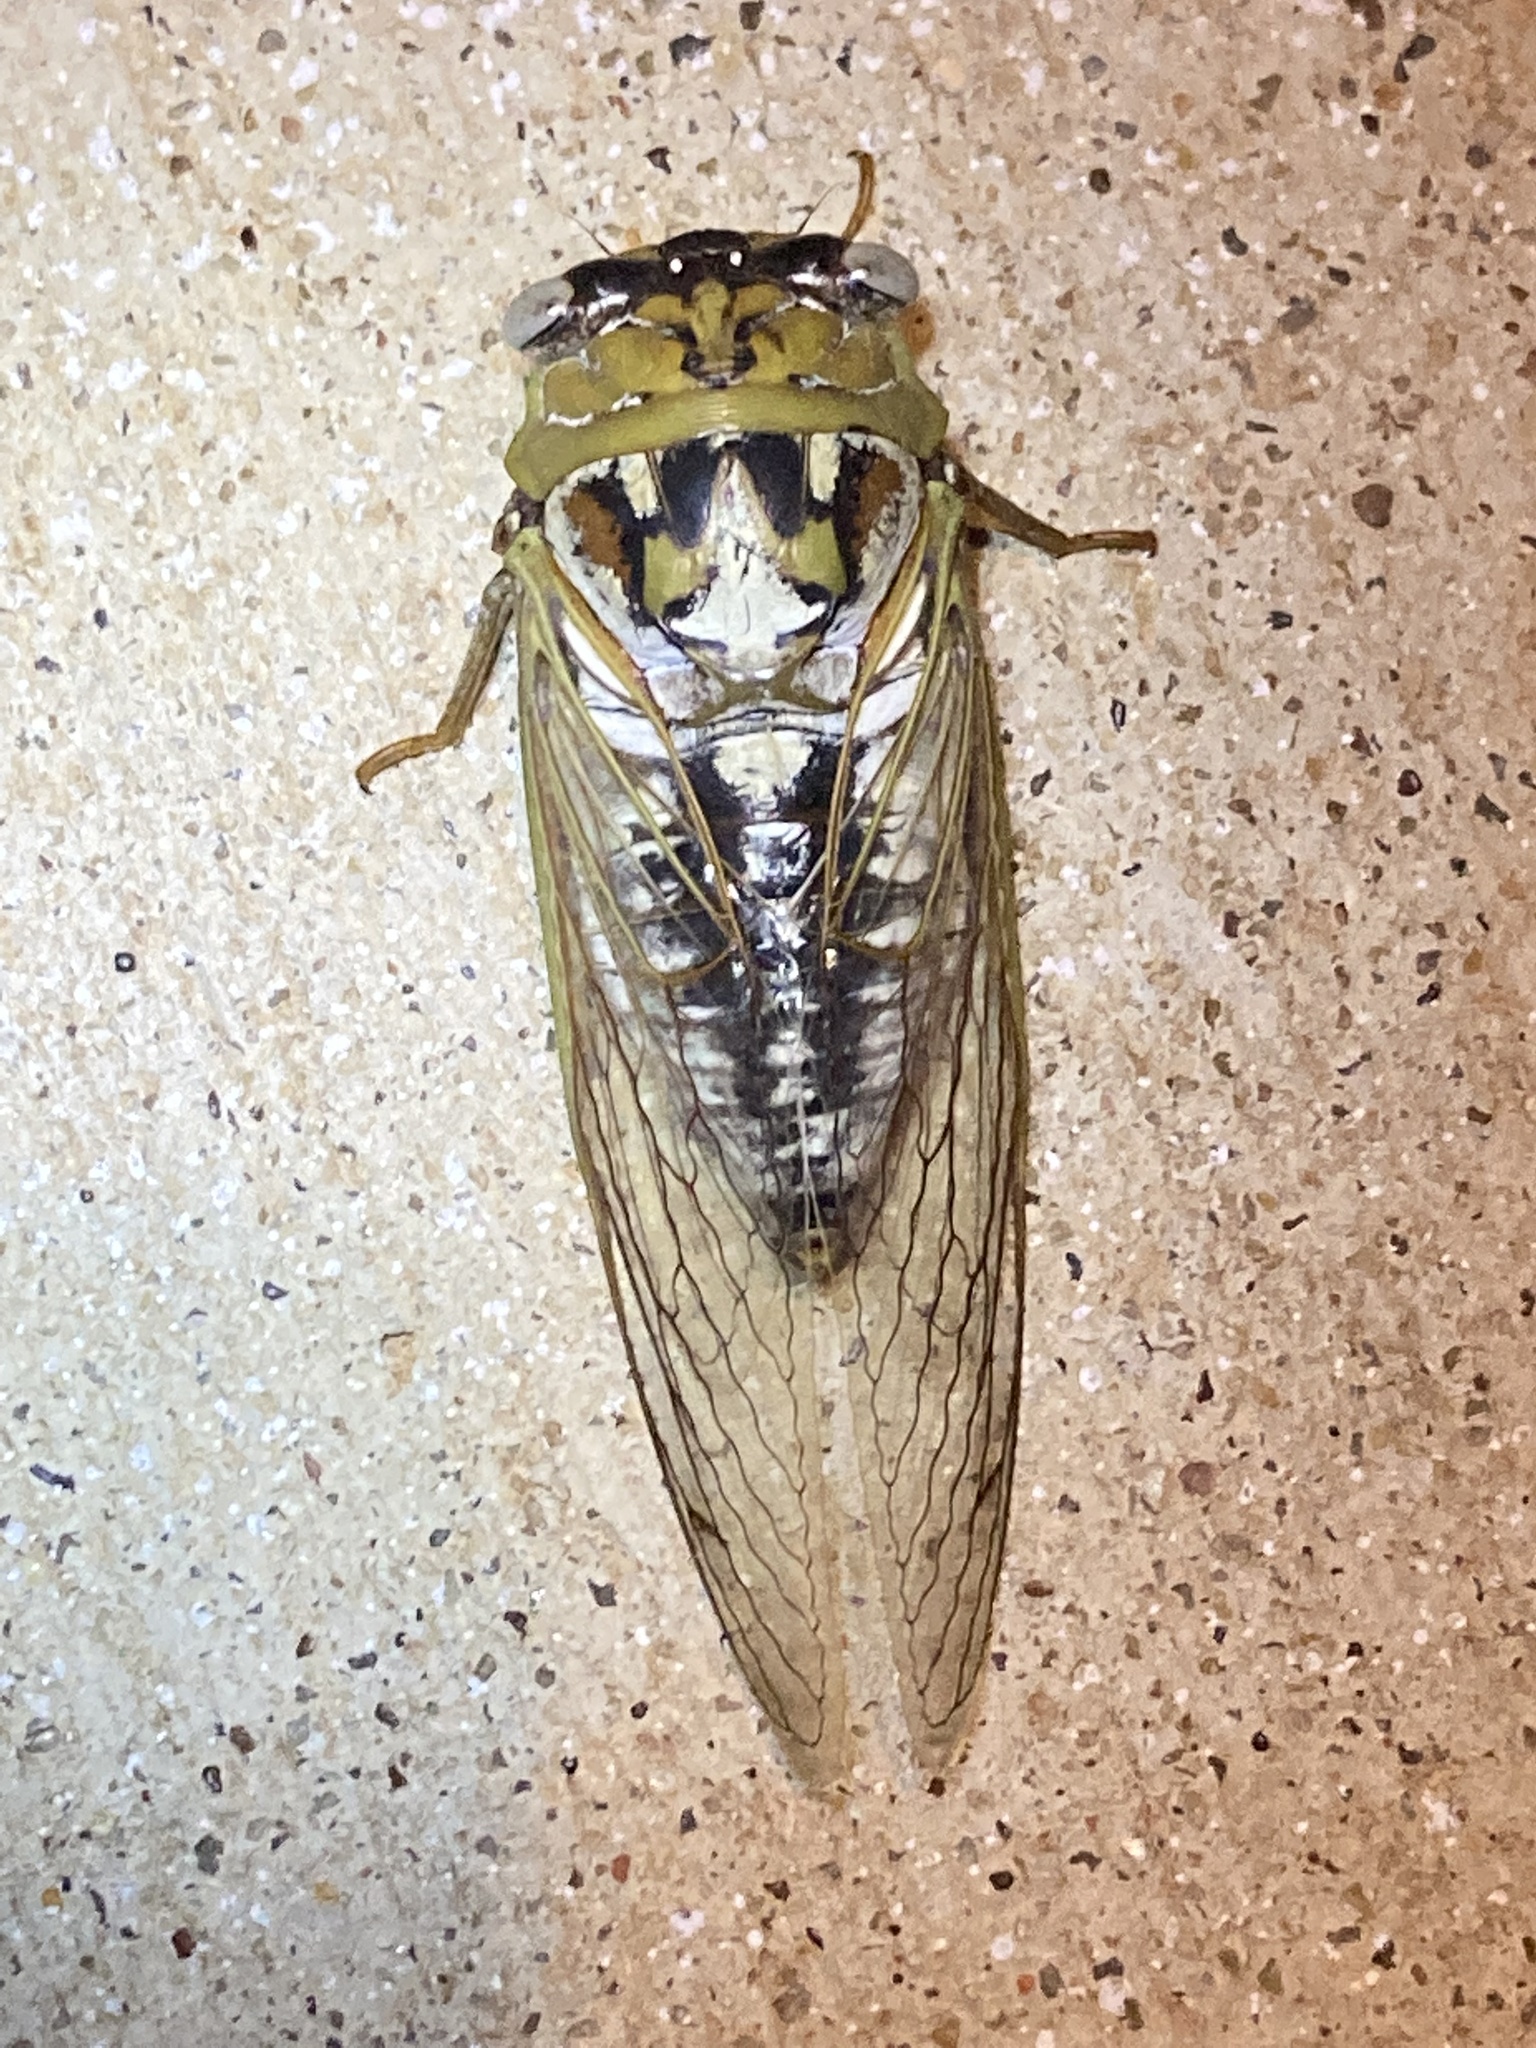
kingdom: Animalia
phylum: Arthropoda
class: Insecta
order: Hemiptera
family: Cicadidae
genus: Megatibicen
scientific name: Megatibicen dealbatus
